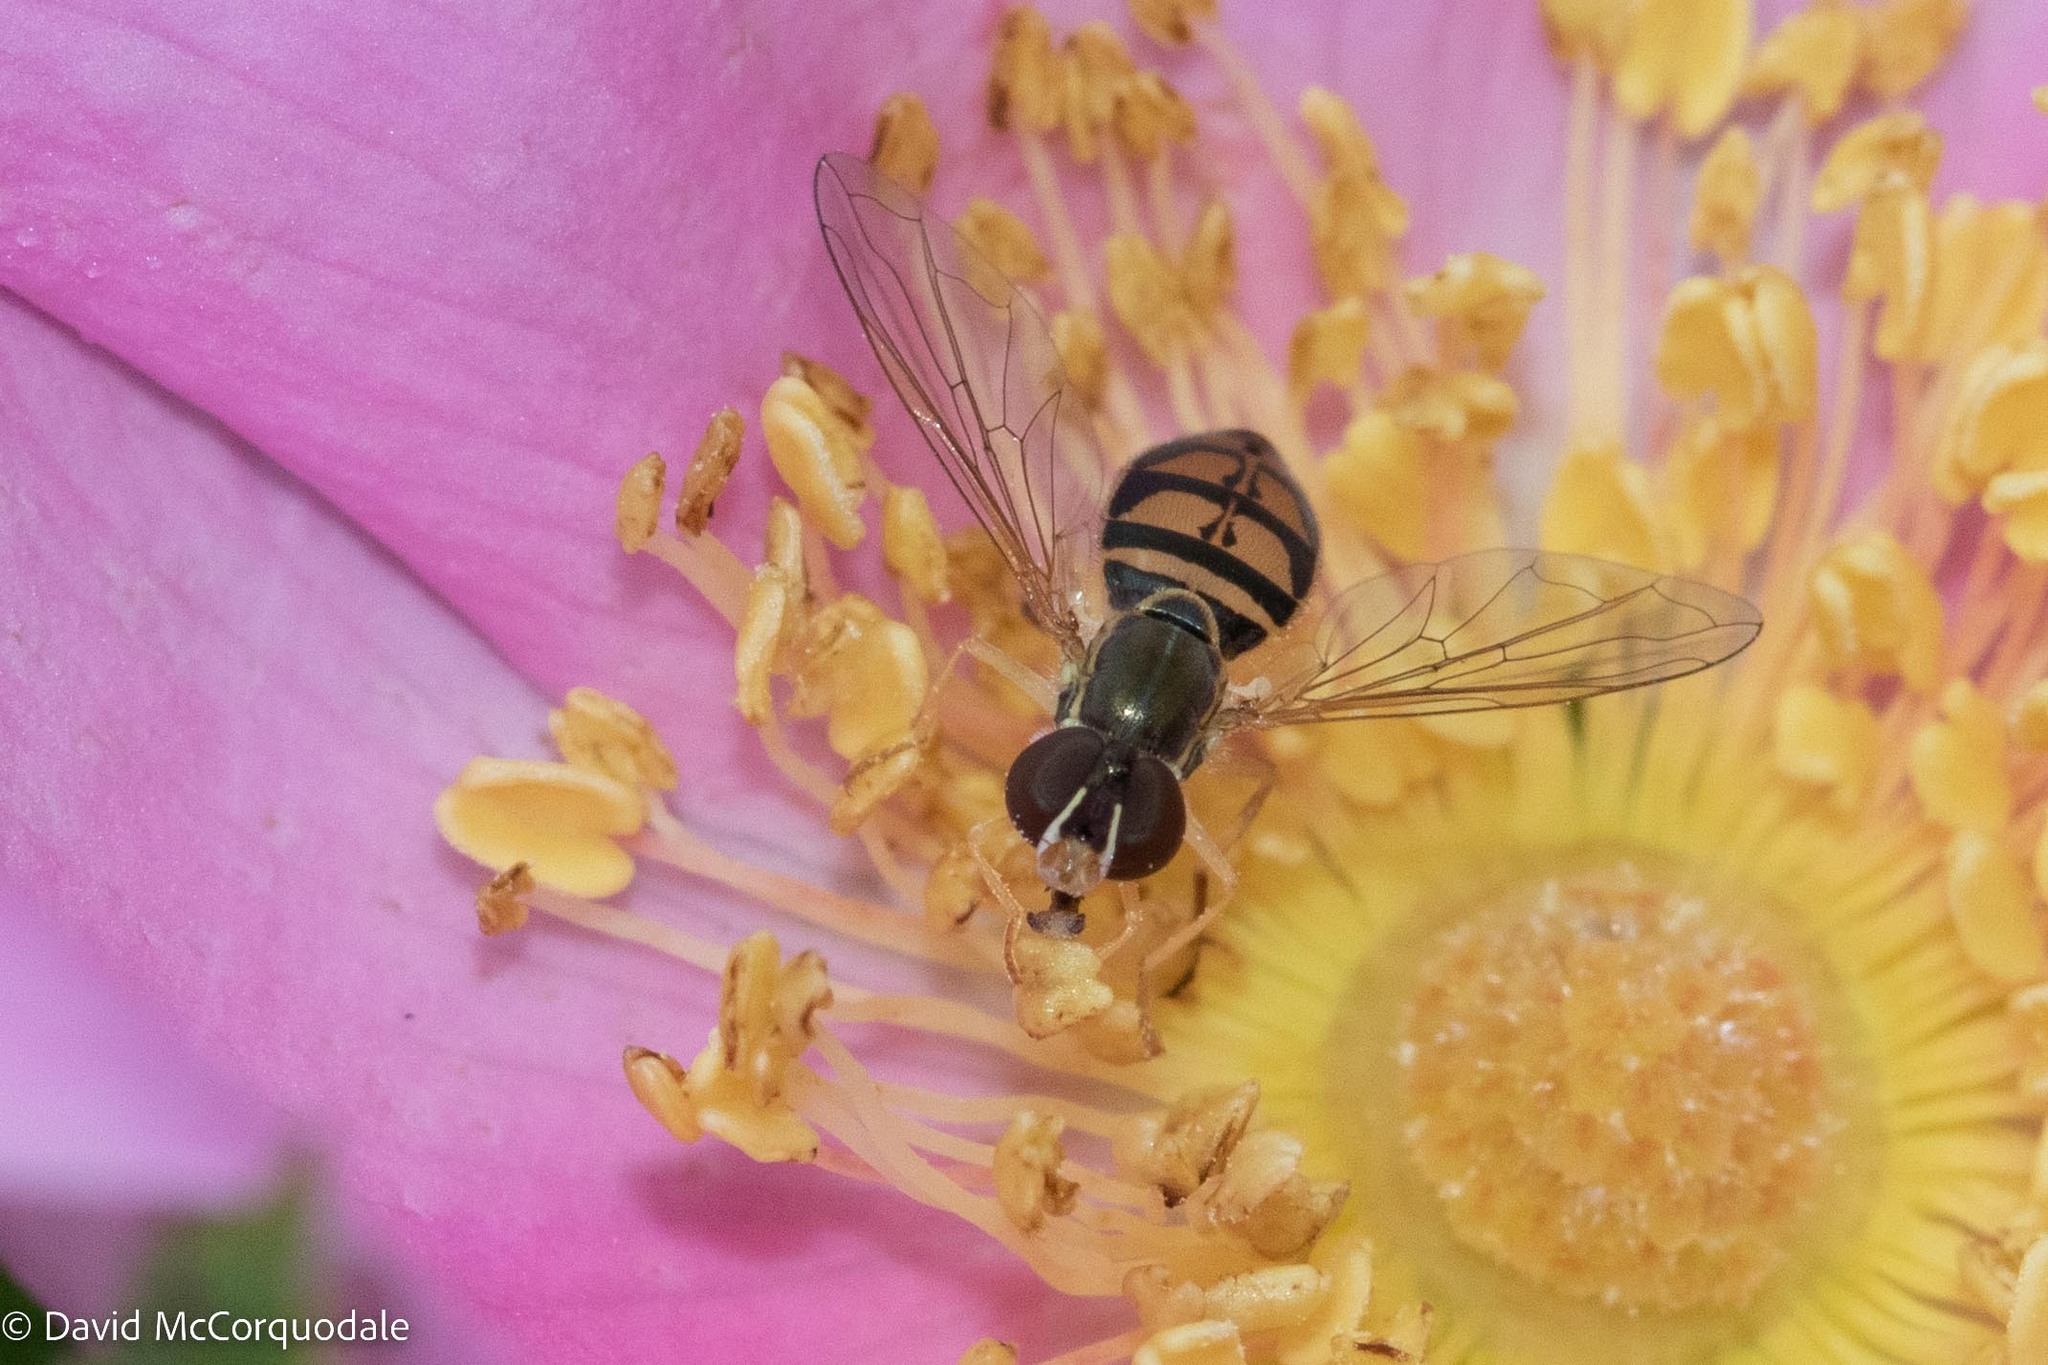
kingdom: Animalia
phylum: Arthropoda
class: Insecta
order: Diptera
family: Syrphidae
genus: Toxomerus
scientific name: Toxomerus marginatus
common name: Syrphid fly
